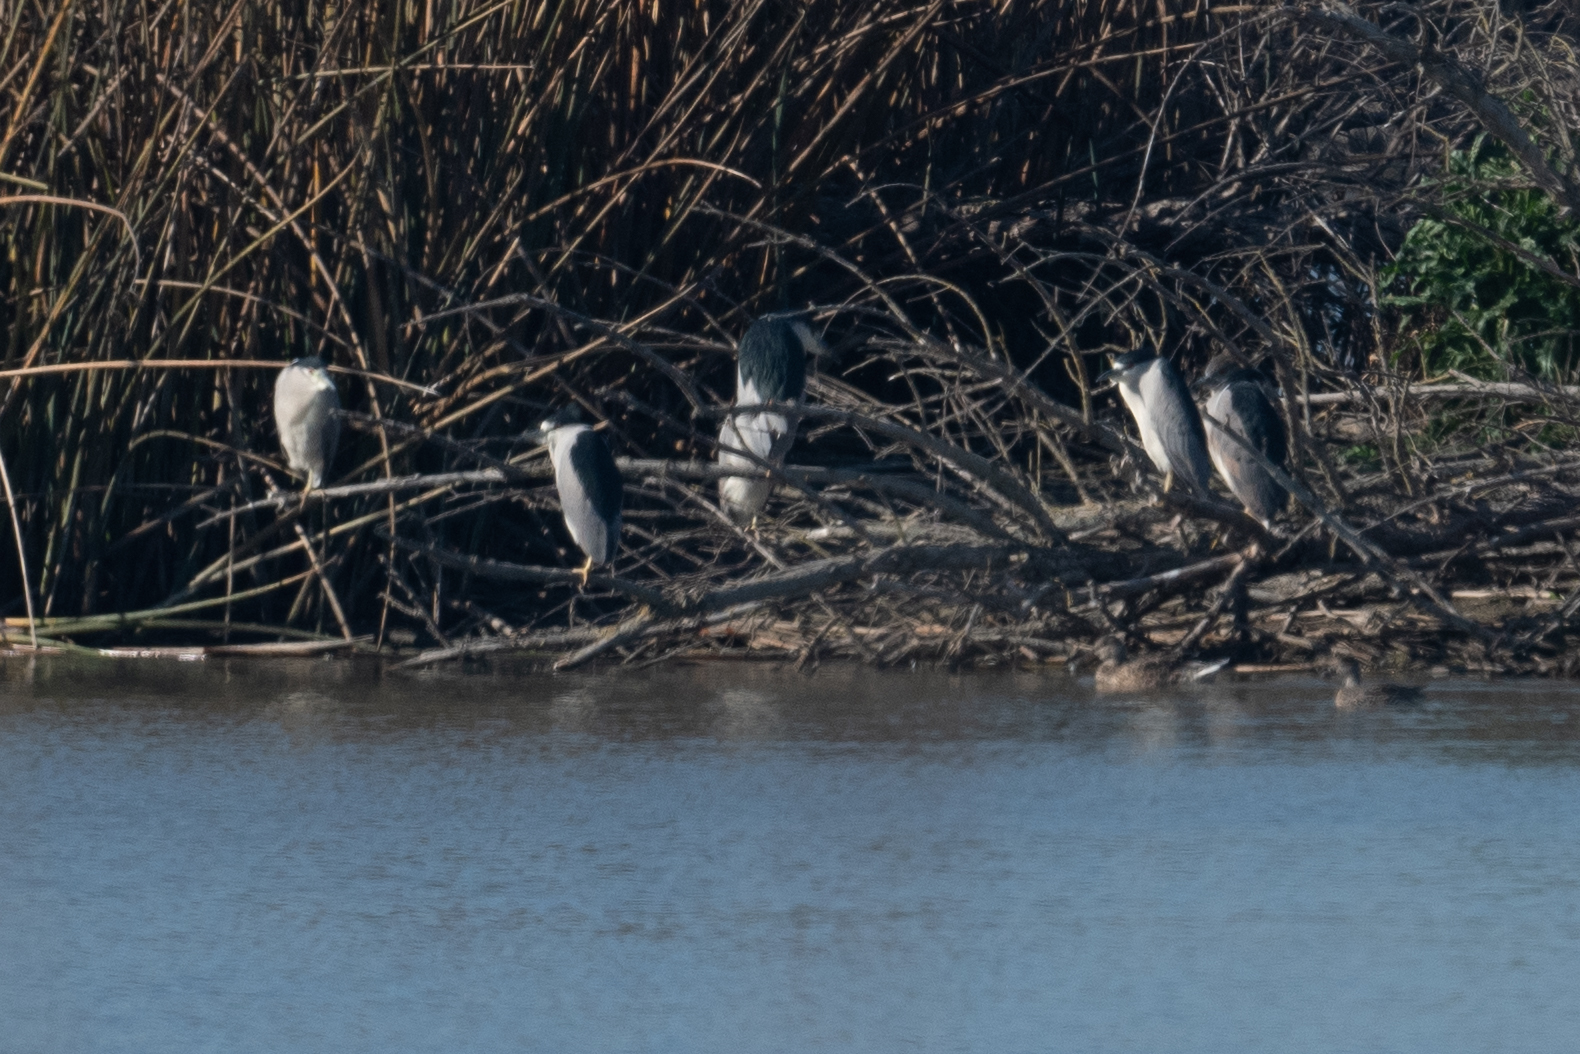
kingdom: Animalia
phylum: Chordata
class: Aves
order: Pelecaniformes
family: Ardeidae
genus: Nycticorax
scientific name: Nycticorax nycticorax
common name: Black-crowned night heron
